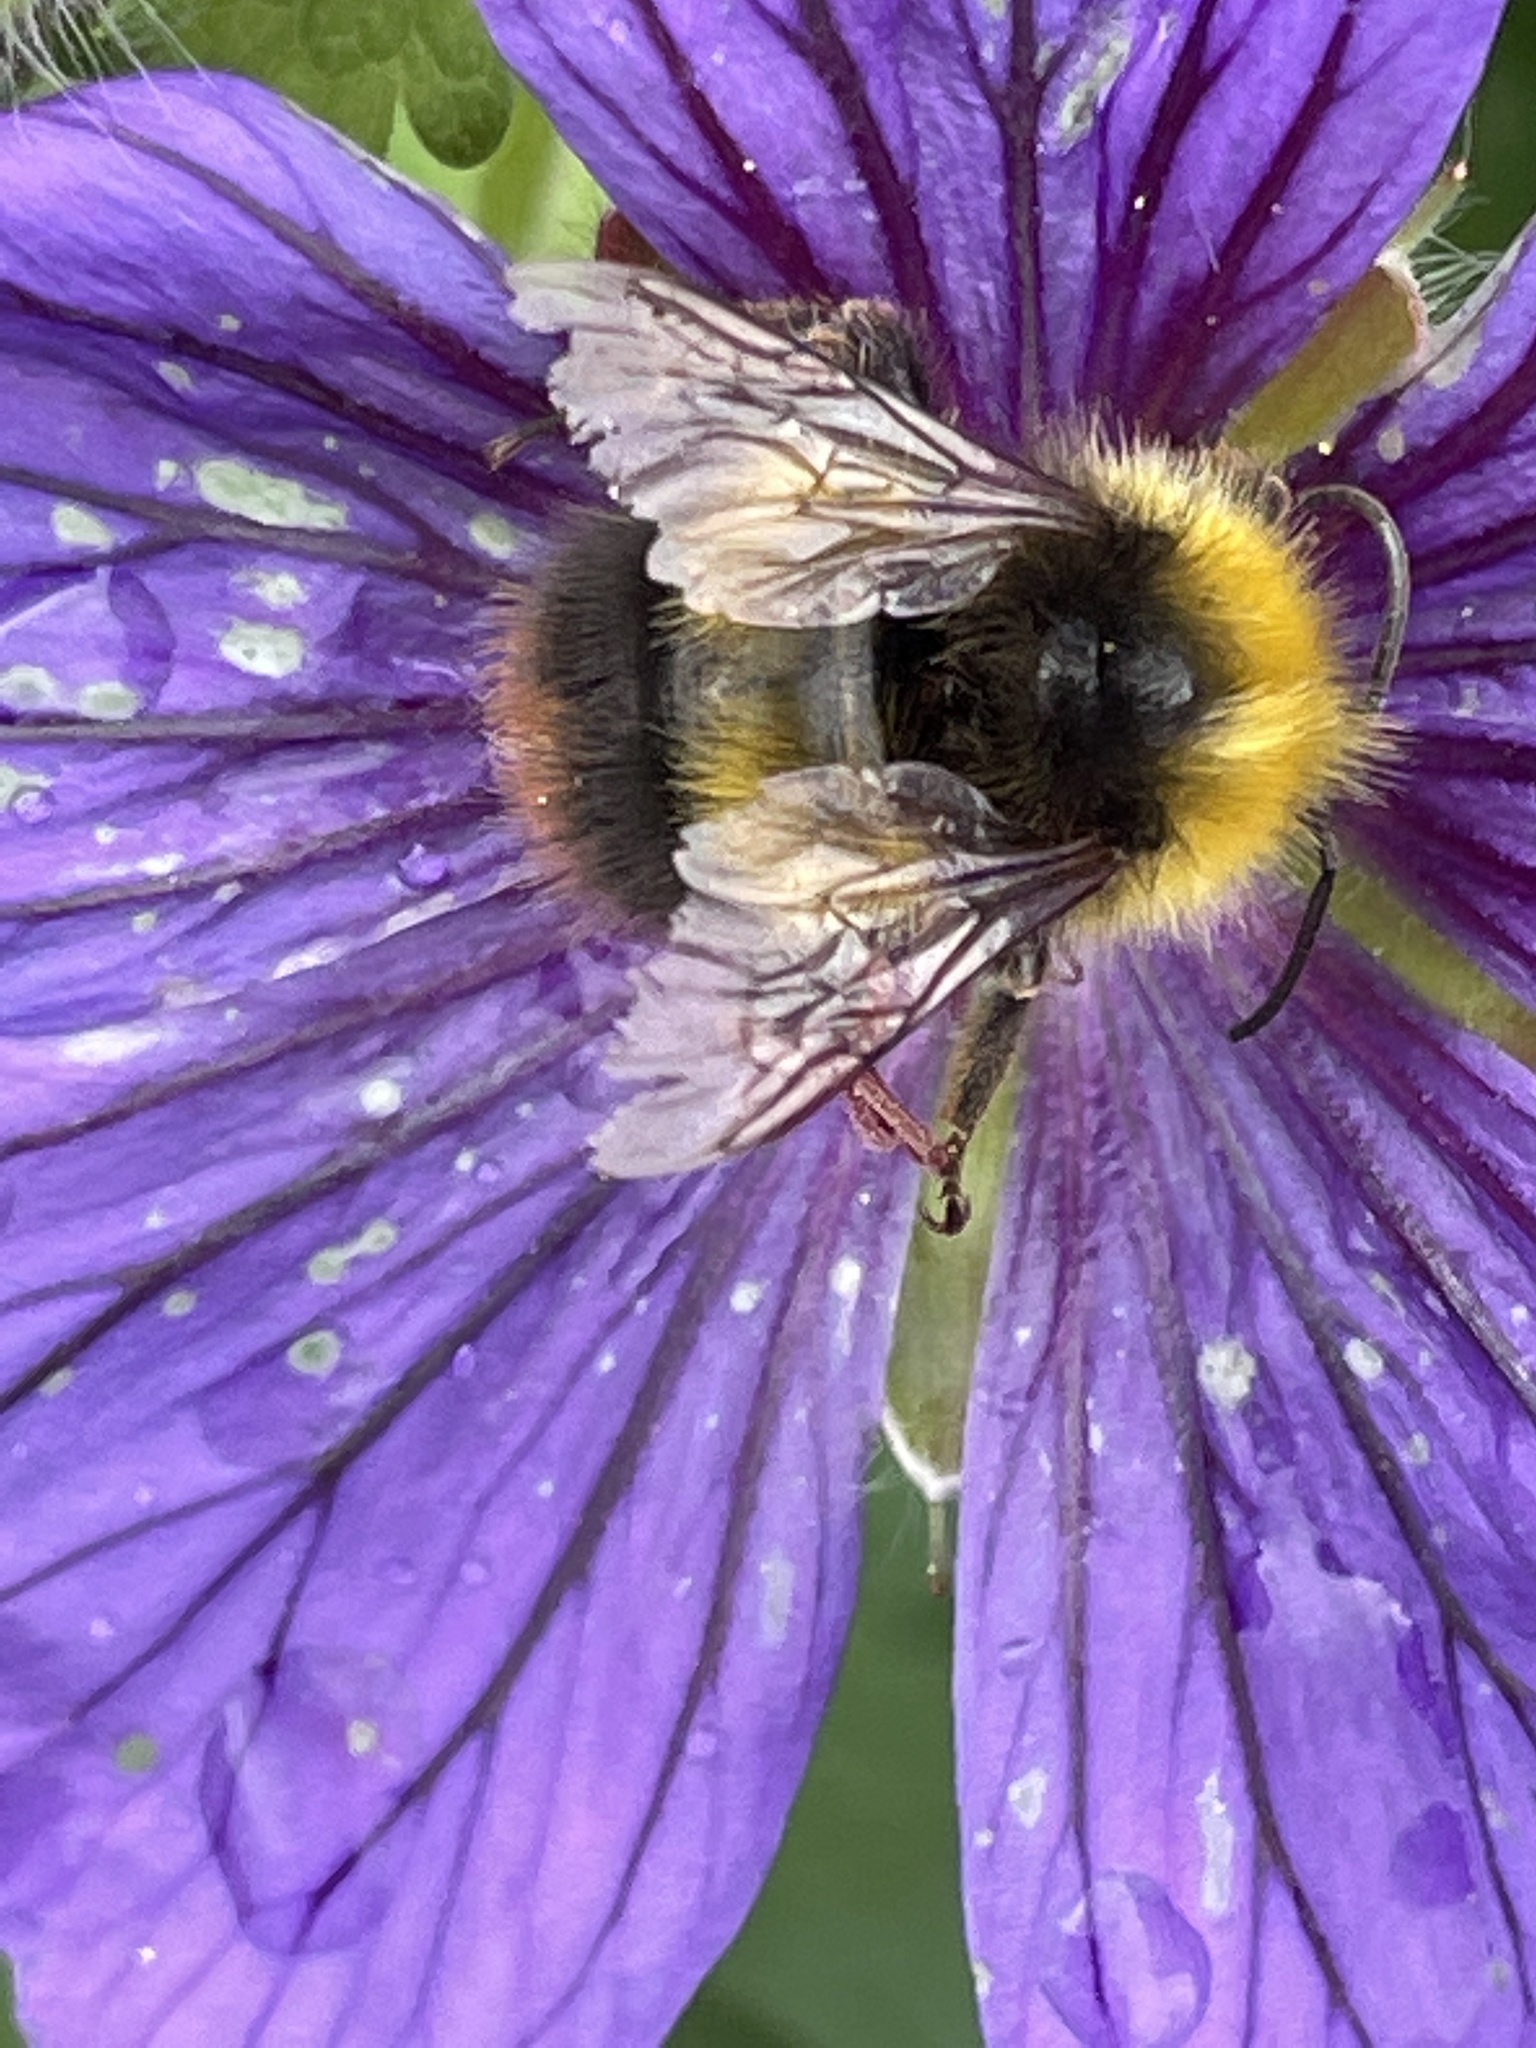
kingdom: Animalia
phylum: Arthropoda
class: Insecta
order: Hymenoptera
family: Apidae
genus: Bombus
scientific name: Bombus pratorum
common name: Early humble-bee
